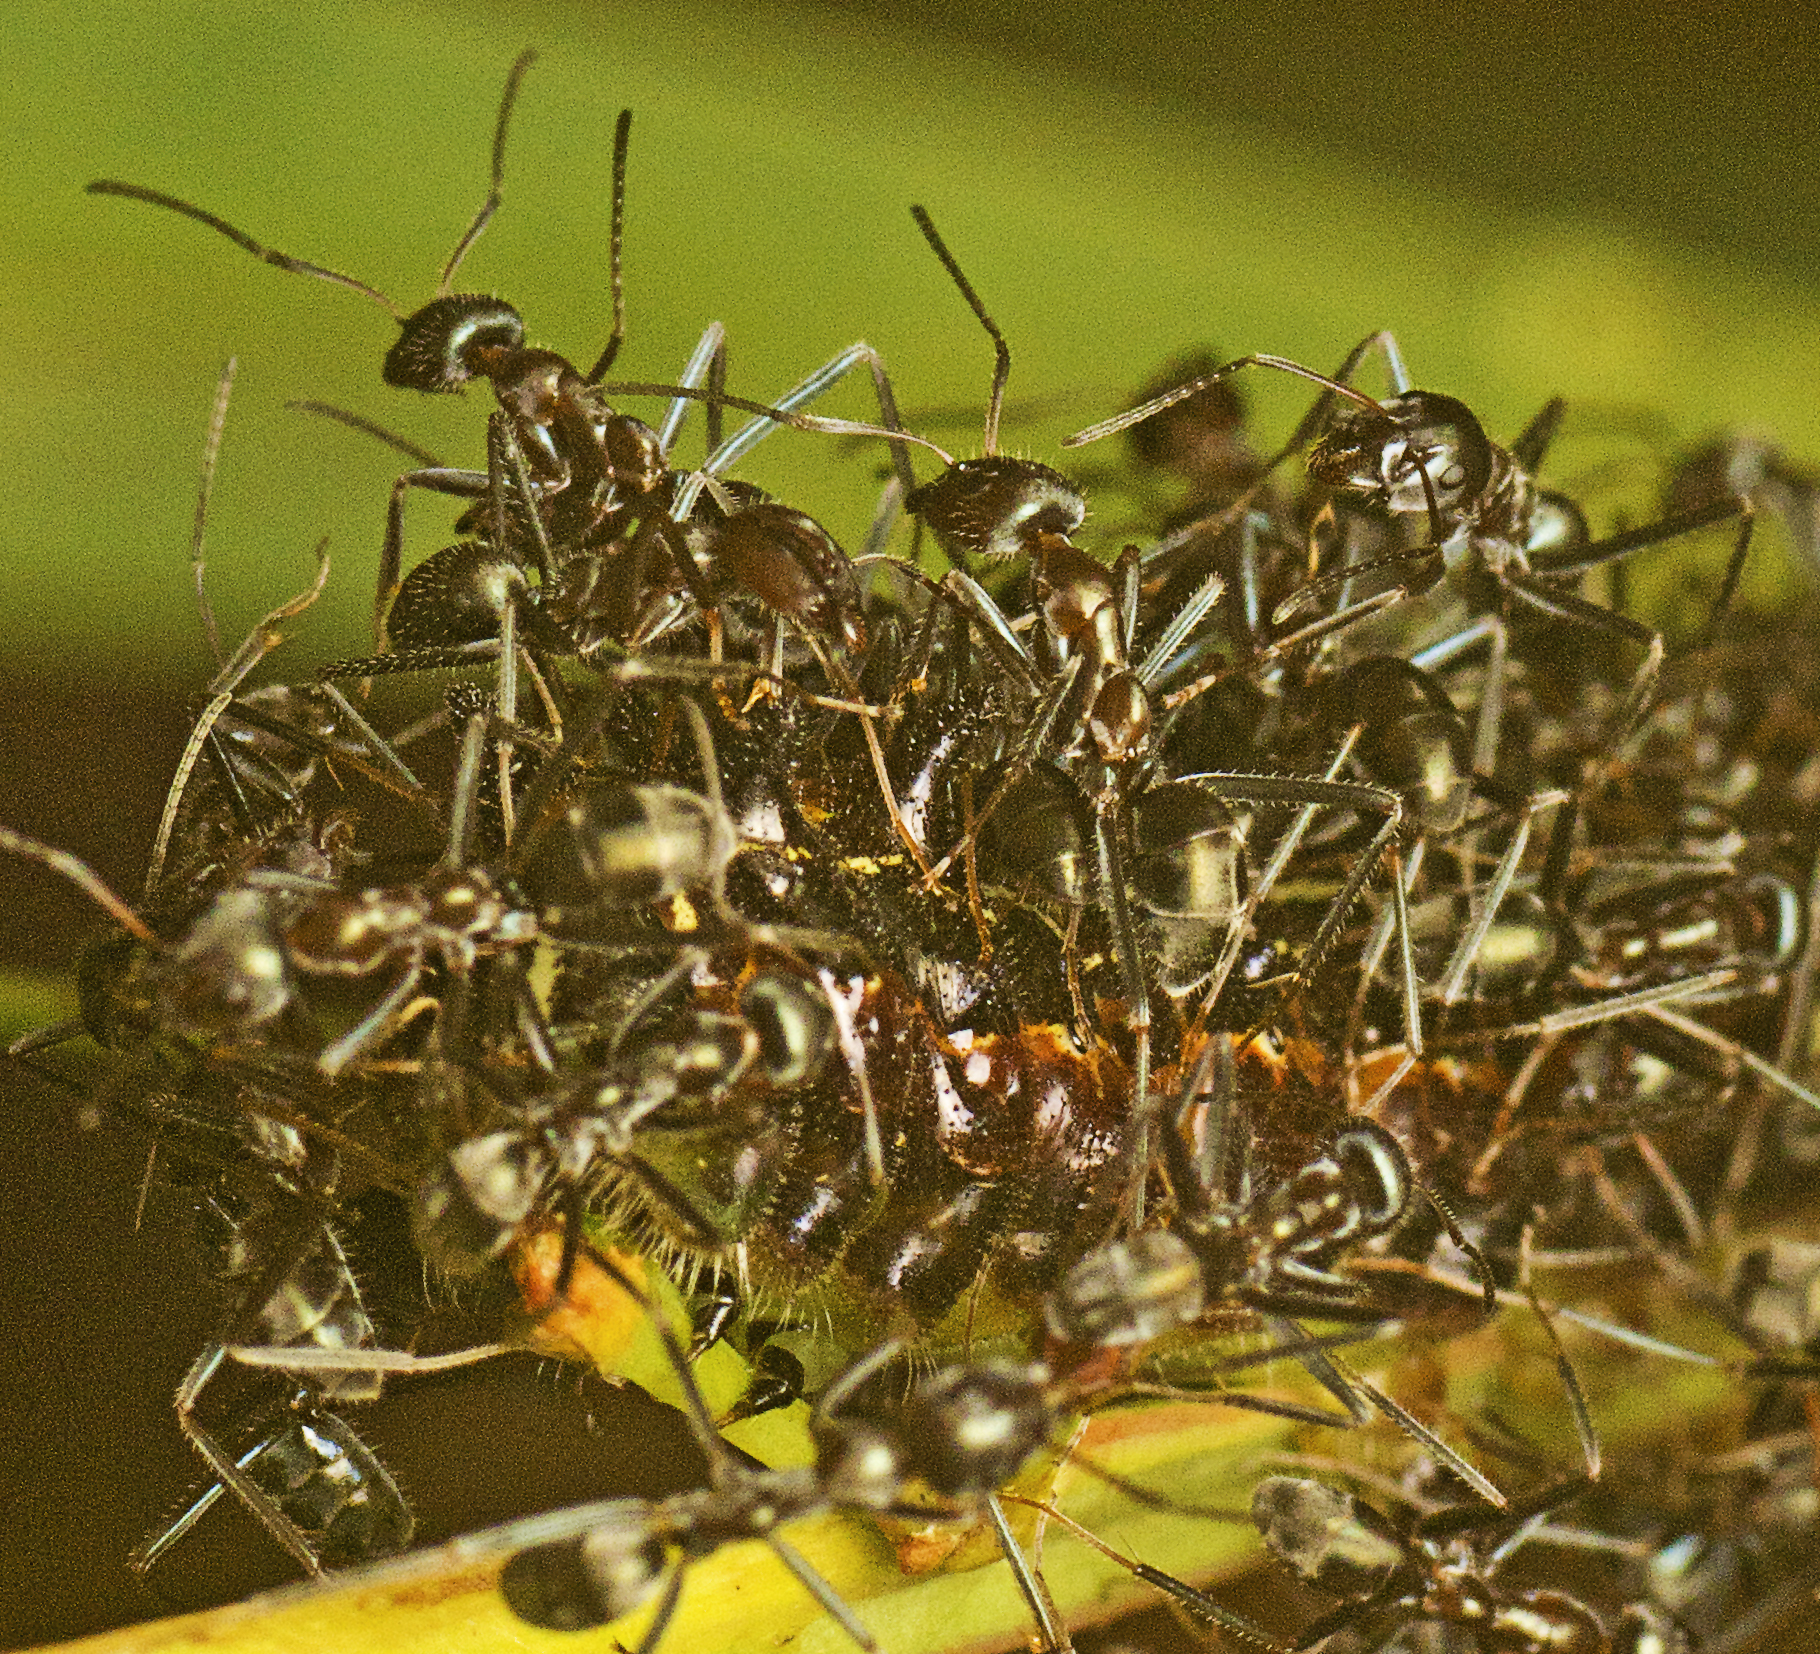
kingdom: Animalia
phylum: Arthropoda
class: Insecta
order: Hymenoptera
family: Formicidae
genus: Iridomyrmex
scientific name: Iridomyrmex
